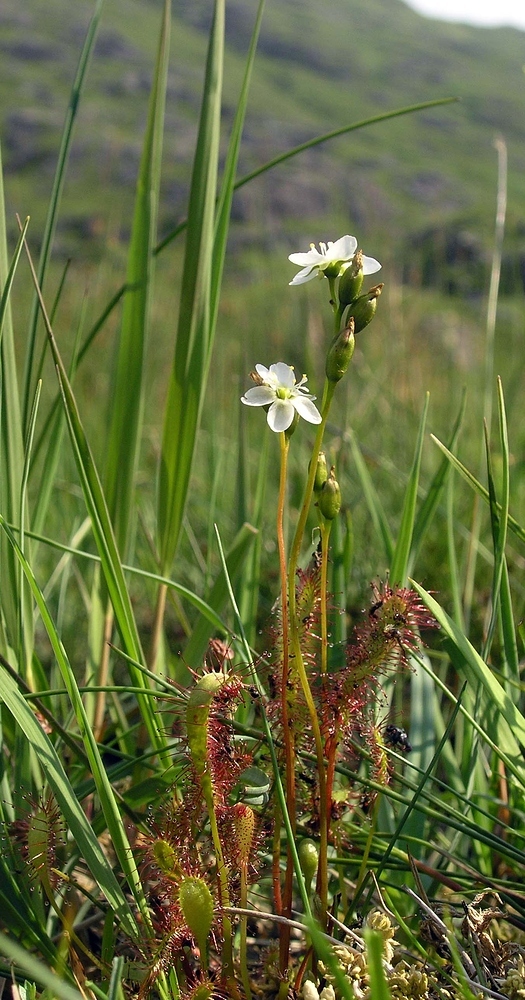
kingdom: Plantae
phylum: Tracheophyta
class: Magnoliopsida
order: Caryophyllales
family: Droseraceae
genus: Drosera
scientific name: Drosera anglica
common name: Great sundew
